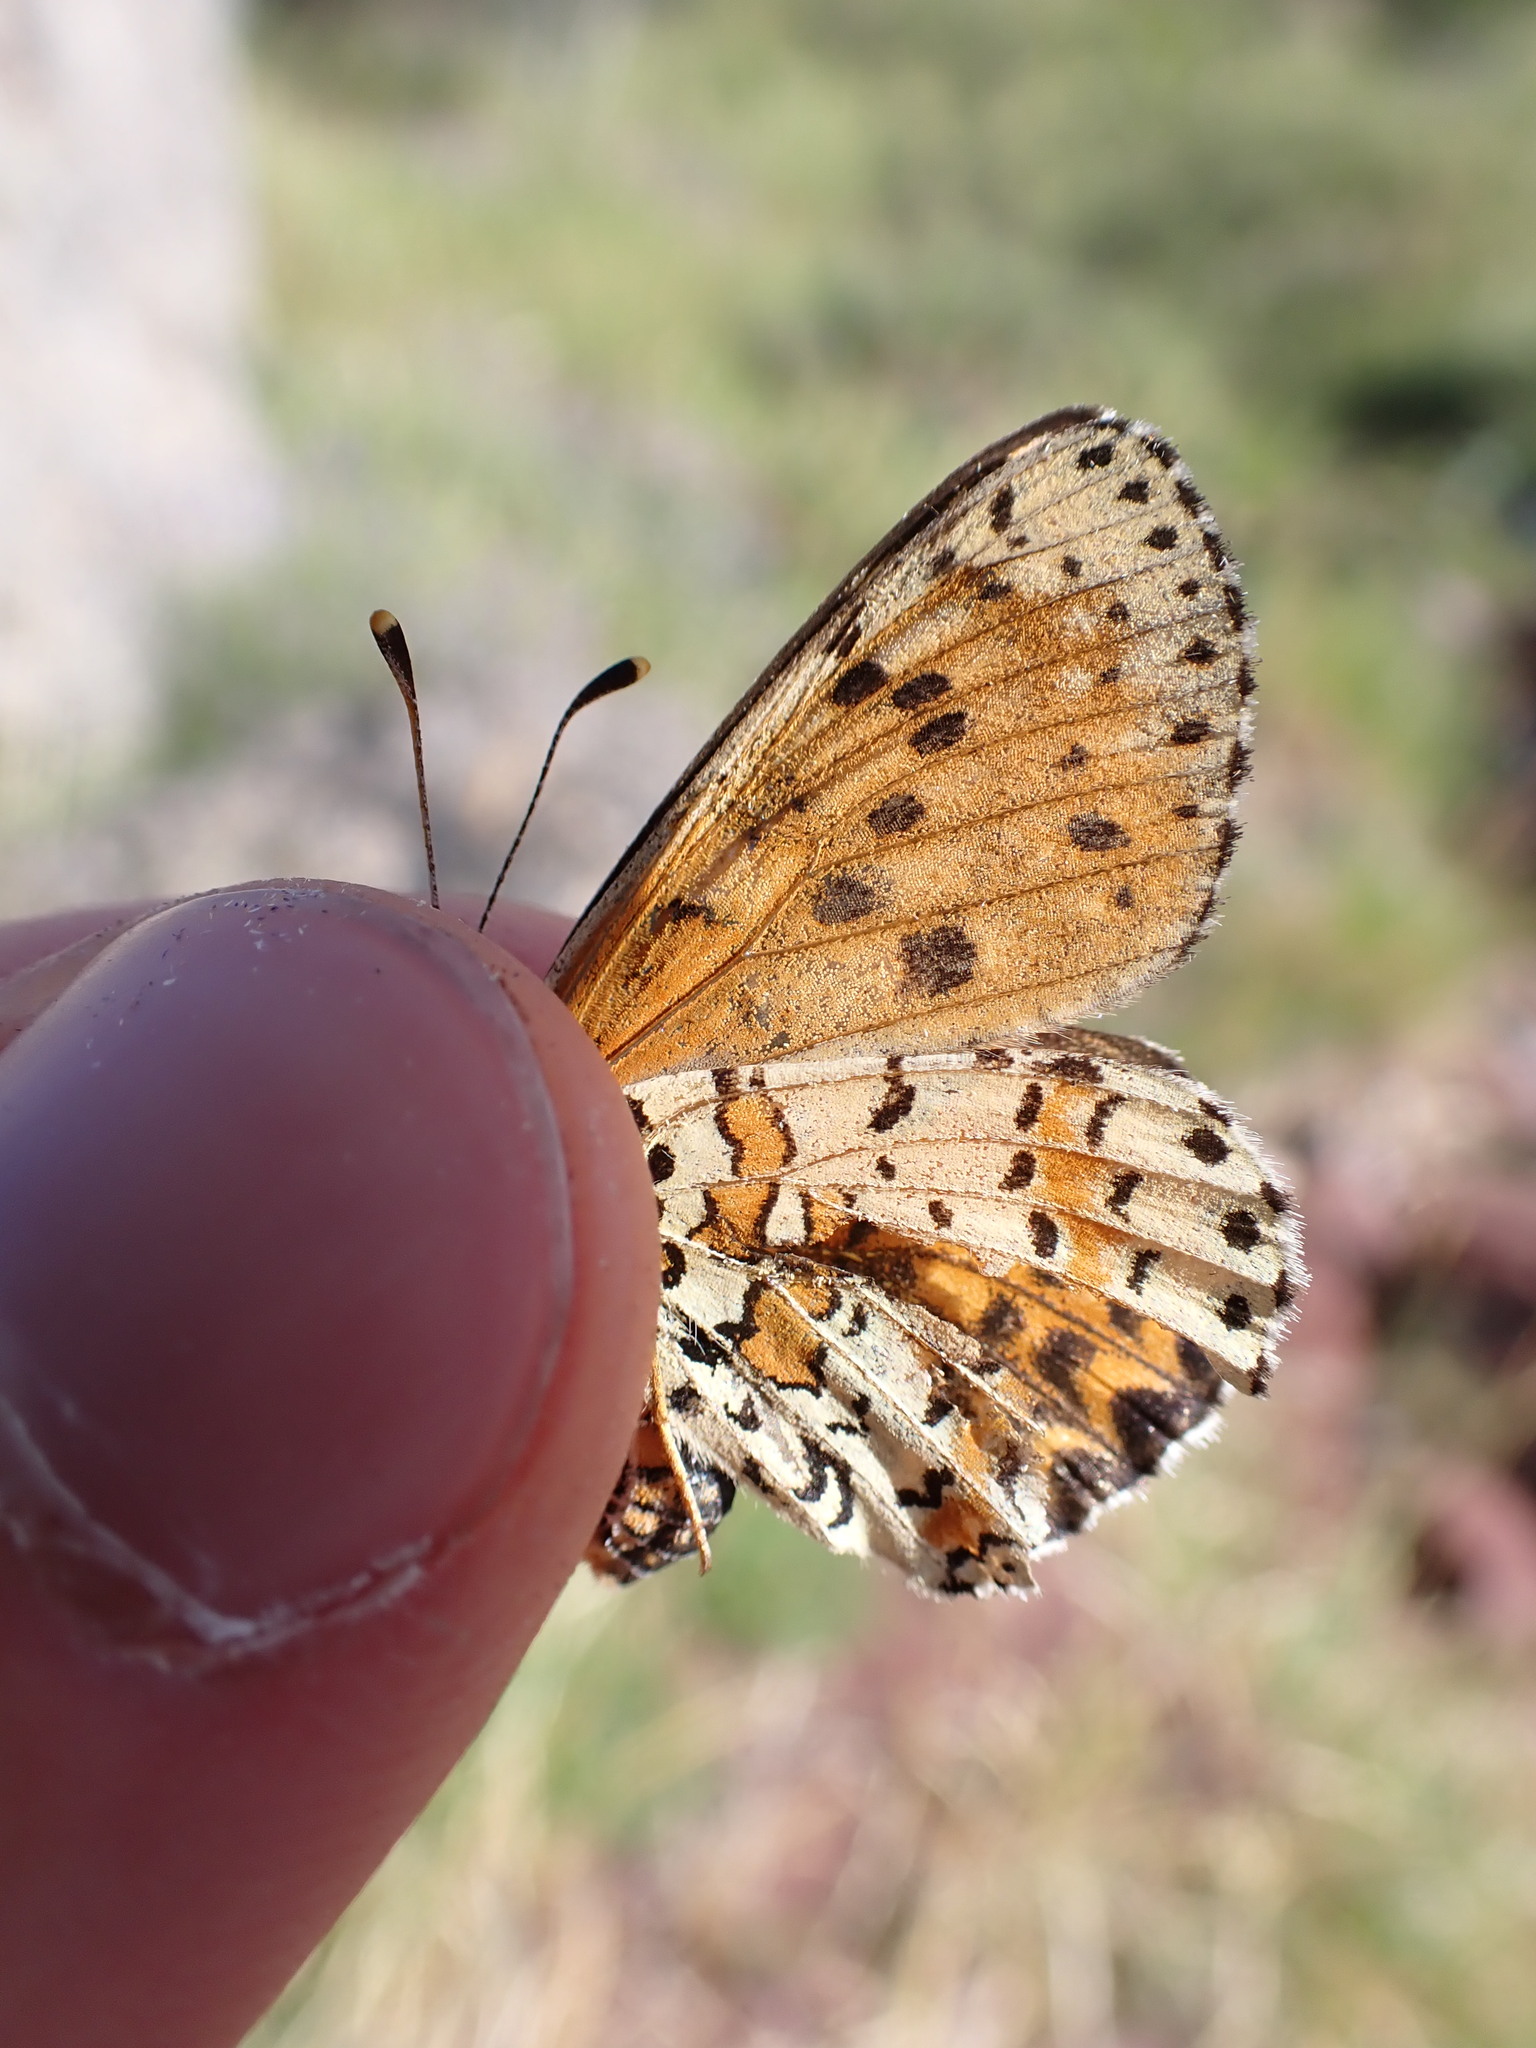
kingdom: Animalia
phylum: Arthropoda
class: Insecta
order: Lepidoptera
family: Nymphalidae
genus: Melitaea
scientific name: Melitaea didyma
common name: Spotted fritillary
